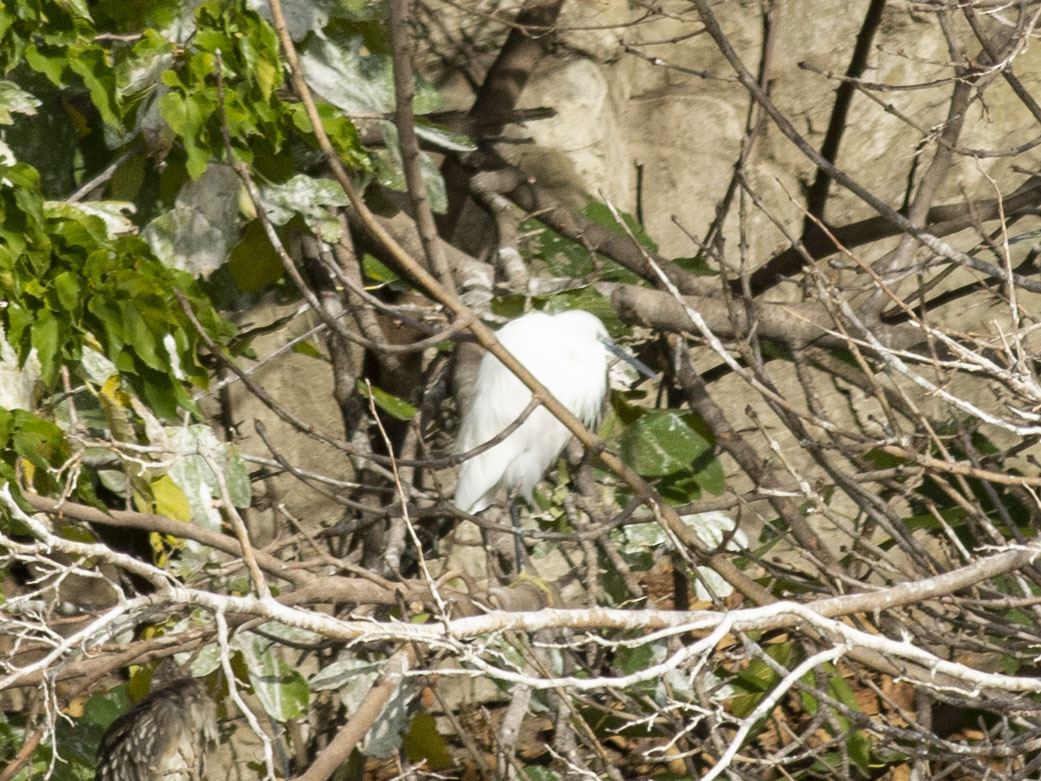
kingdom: Animalia
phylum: Chordata
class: Aves
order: Pelecaniformes
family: Ardeidae
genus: Egretta
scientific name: Egretta garzetta
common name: Little egret
